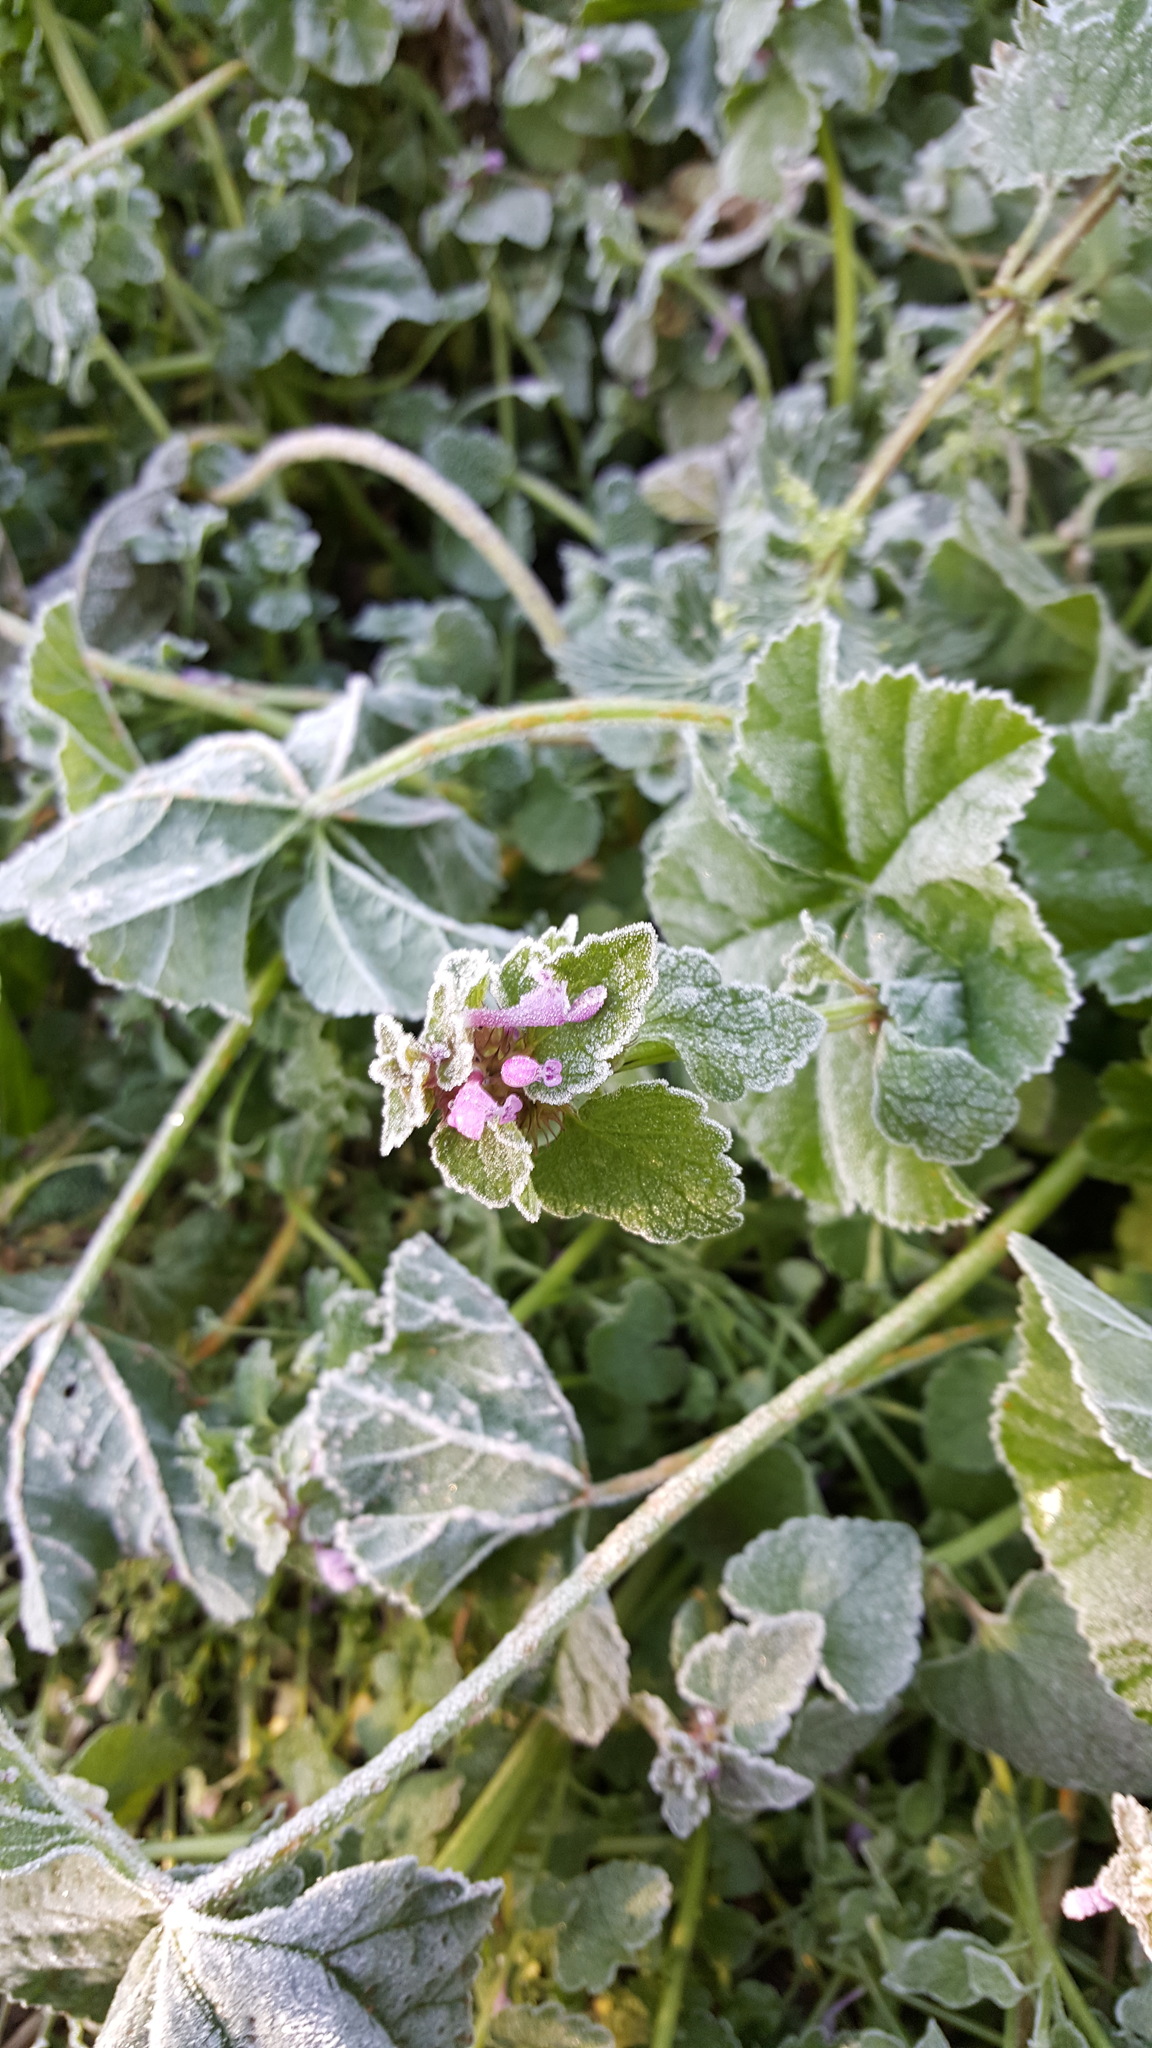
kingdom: Plantae
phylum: Tracheophyta
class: Magnoliopsida
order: Lamiales
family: Lamiaceae
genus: Lamium
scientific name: Lamium purpureum
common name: Red dead-nettle
